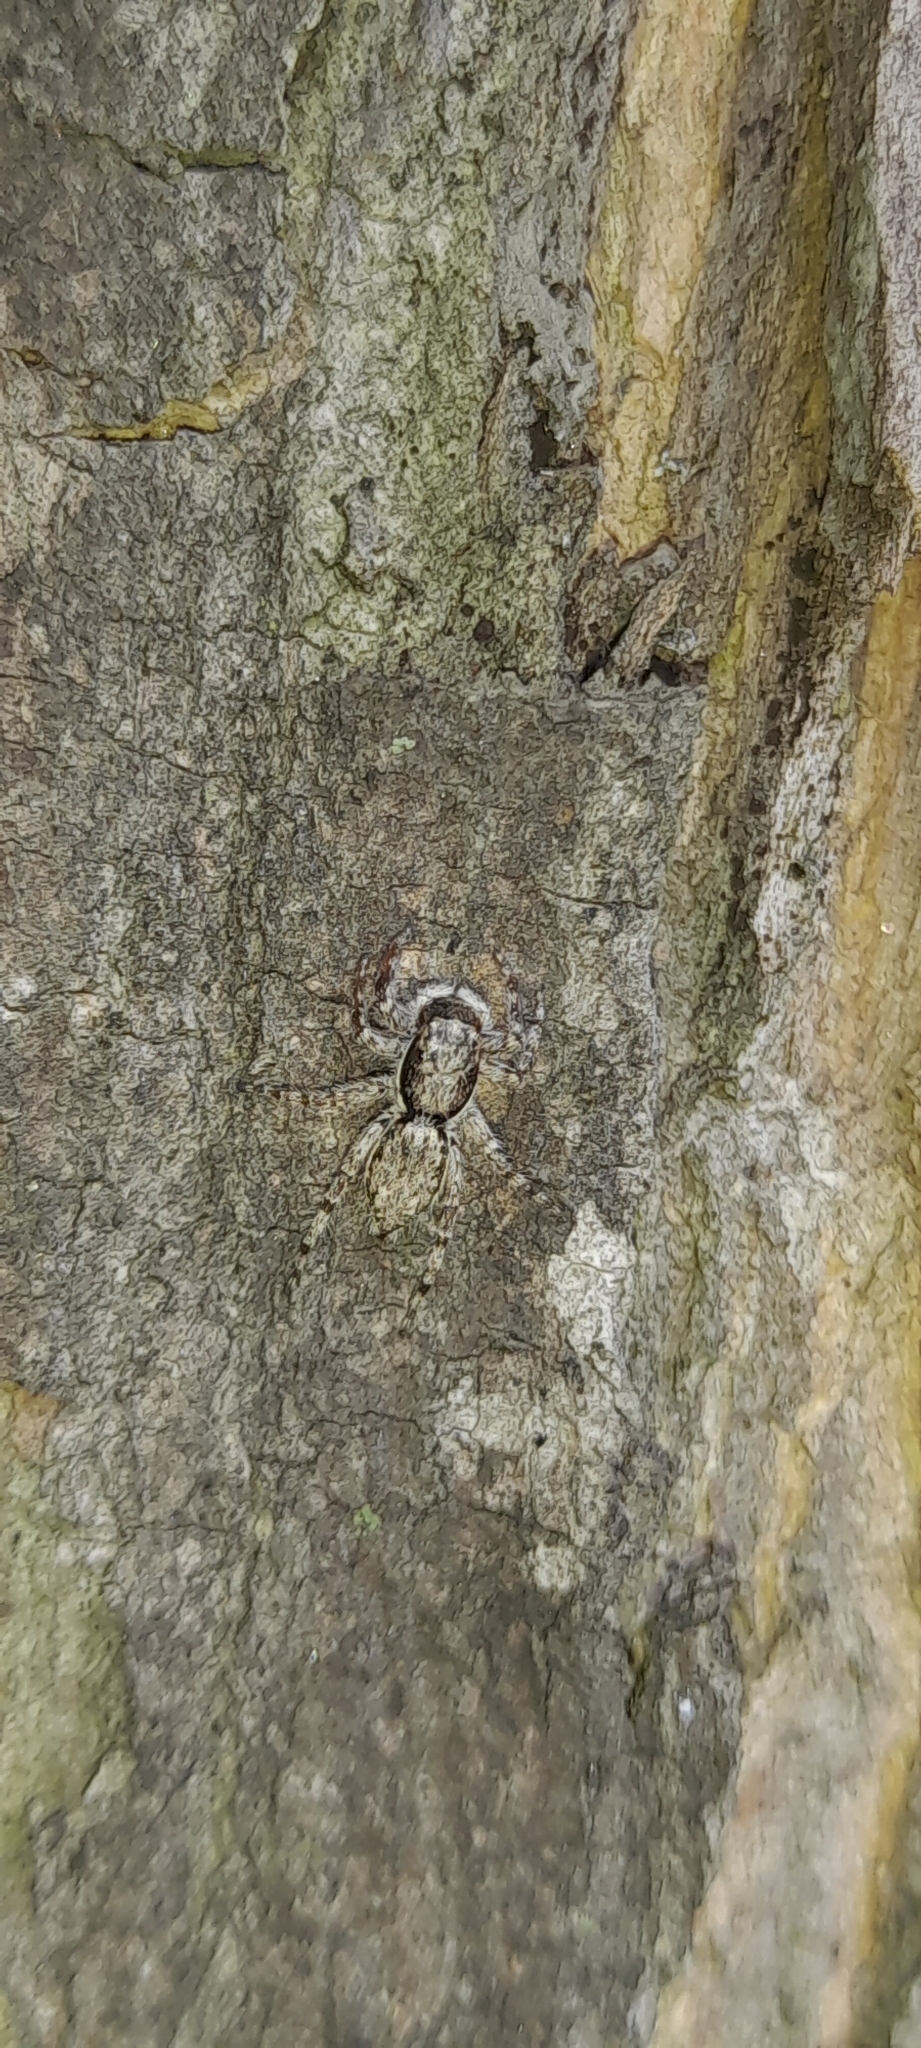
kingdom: Animalia
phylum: Arthropoda
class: Arachnida
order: Araneae
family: Salticidae
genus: Menemerus
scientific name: Menemerus bivittatus
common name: Gray wall jumper
